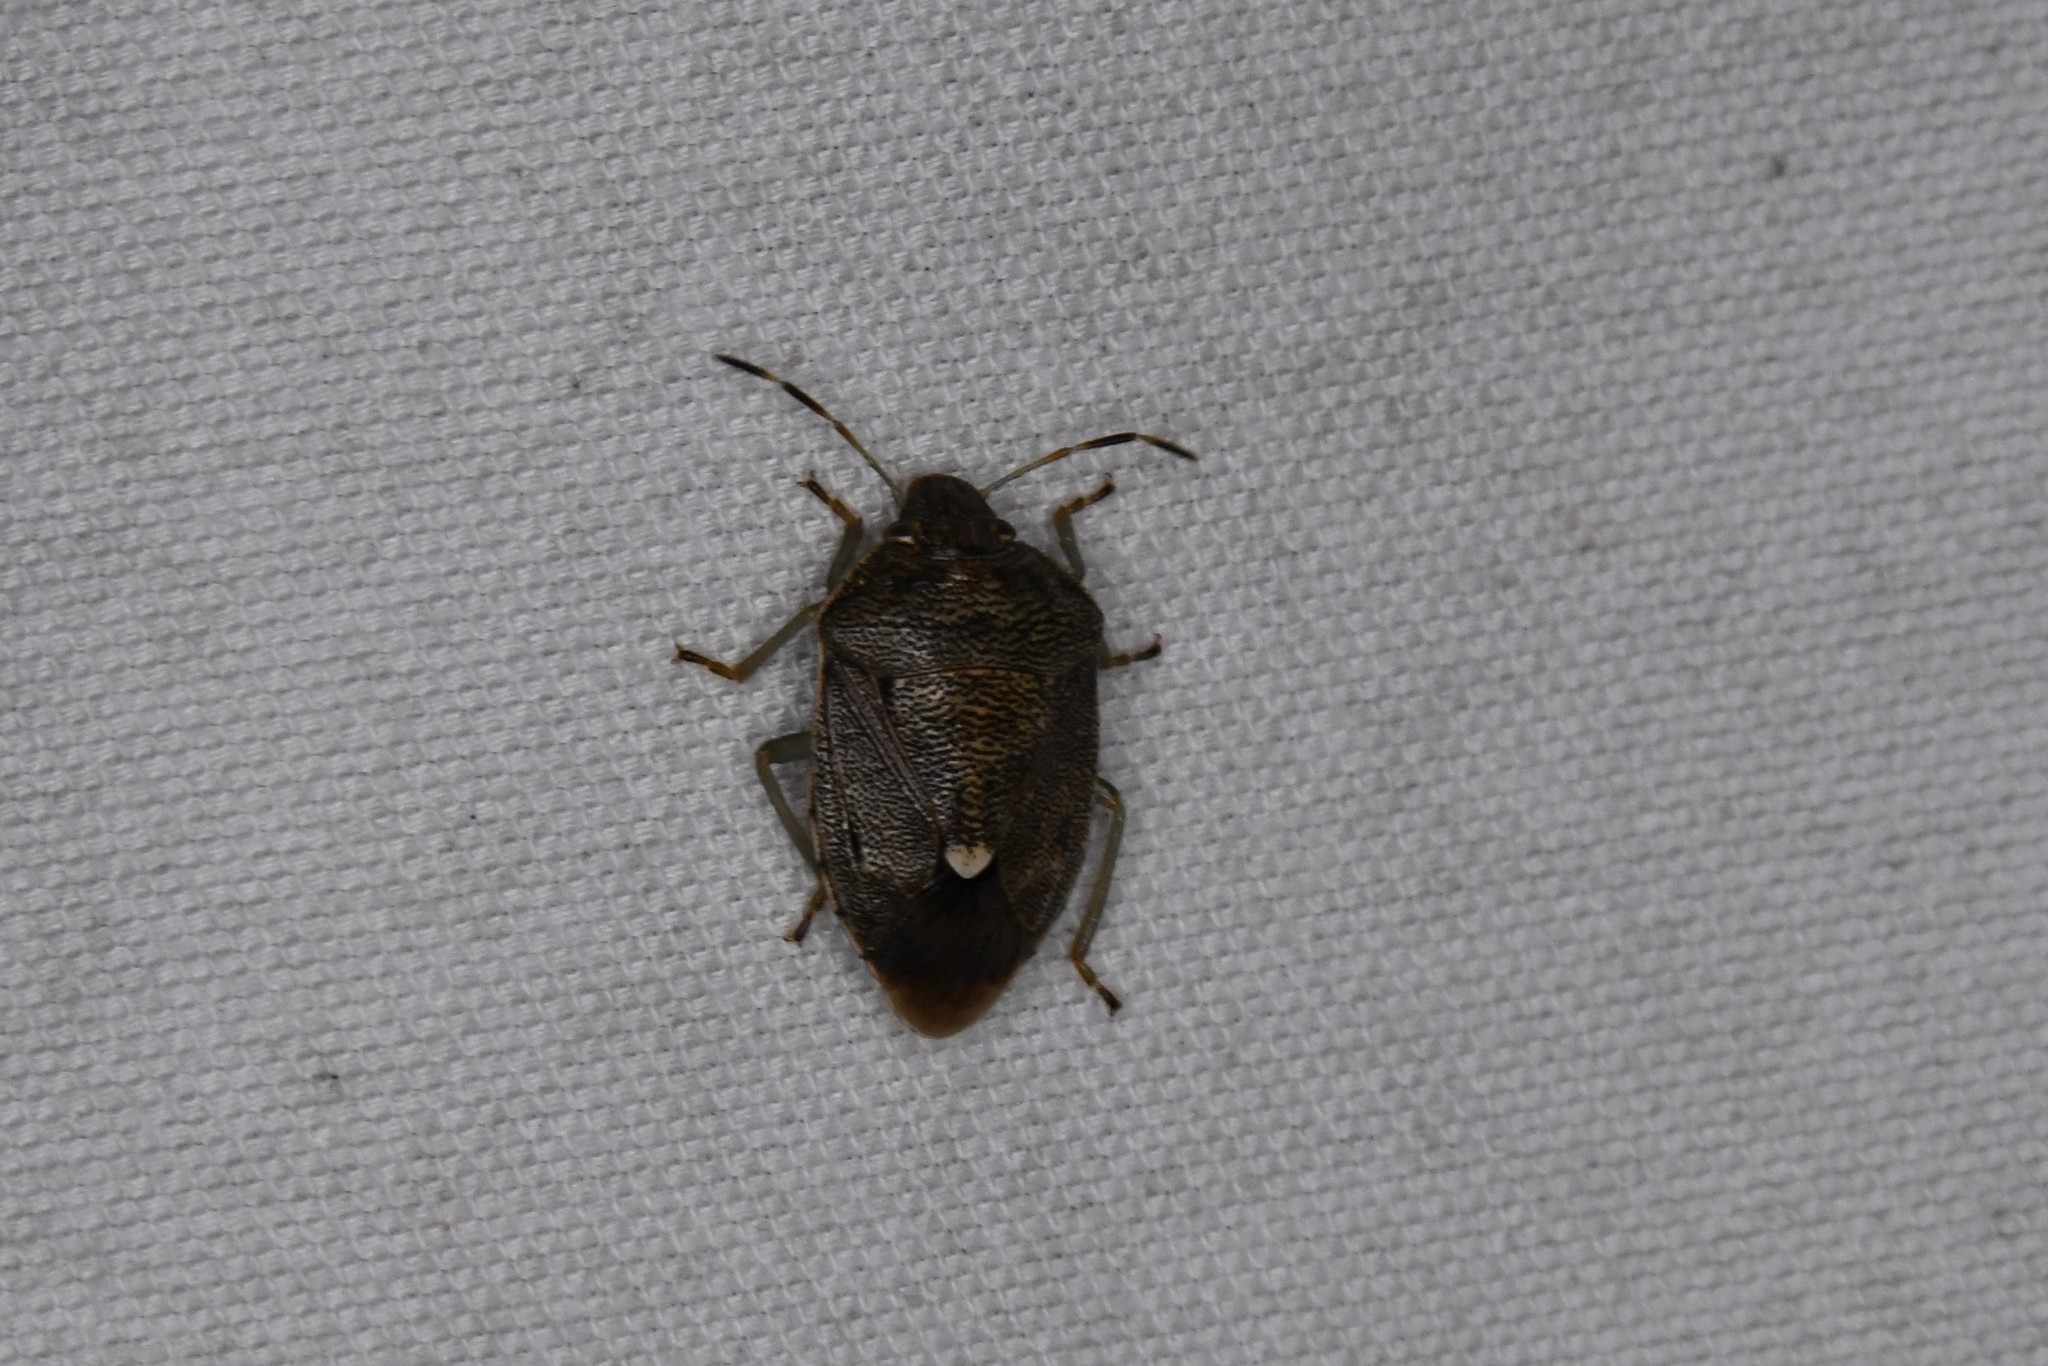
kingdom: Animalia
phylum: Arthropoda
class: Insecta
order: Hemiptera
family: Pentatomidae
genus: Banasa
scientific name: Banasa sordida
